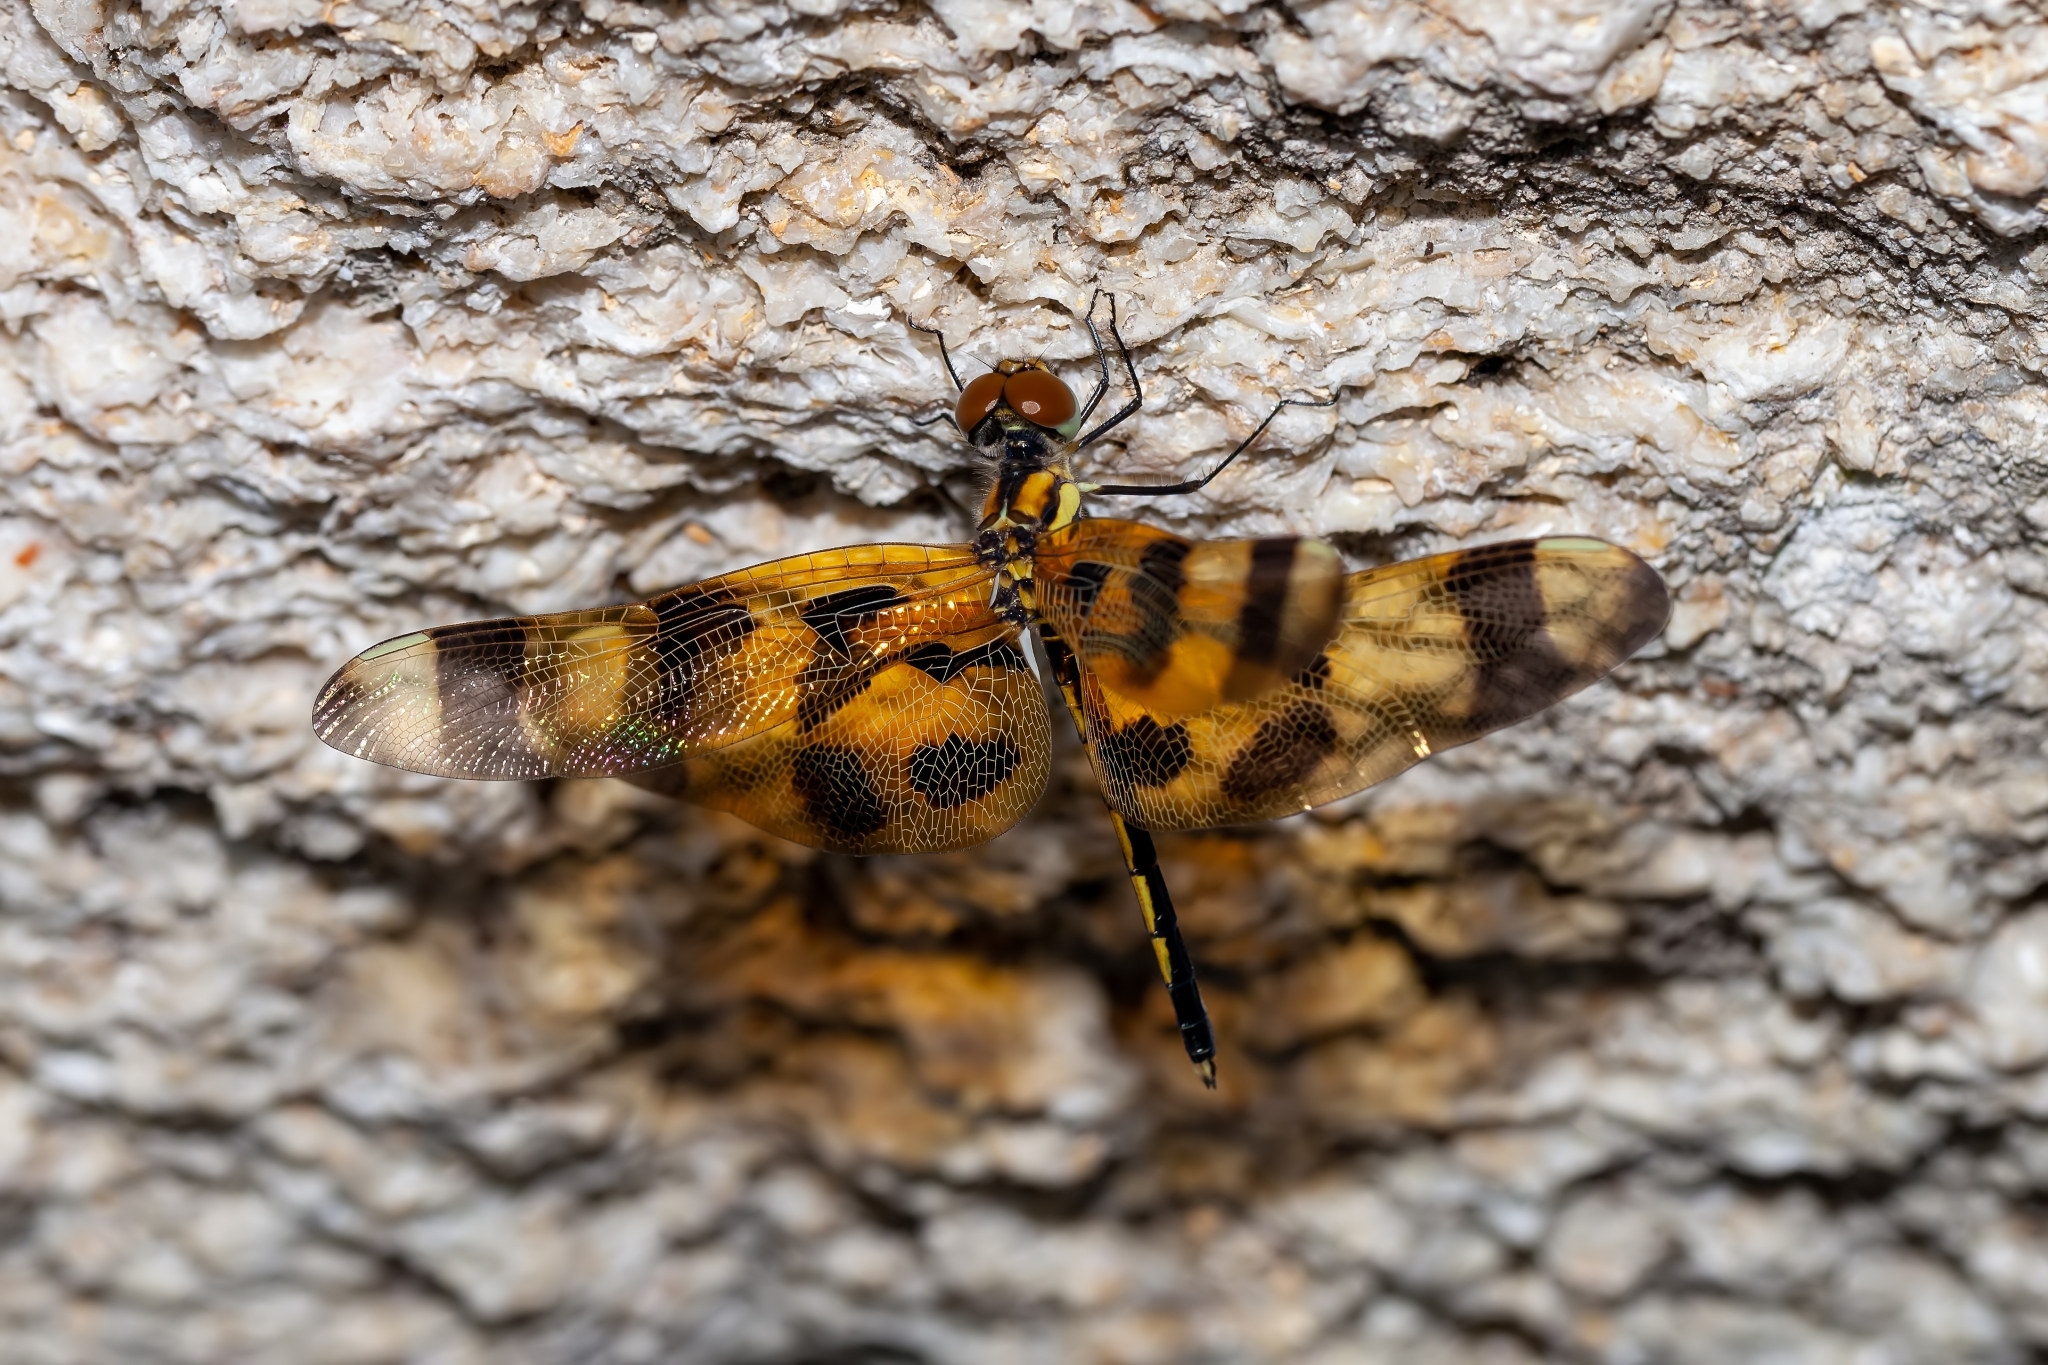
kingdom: Animalia
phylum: Arthropoda
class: Insecta
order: Odonata
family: Libellulidae
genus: Celithemis
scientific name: Celithemis eponina
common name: Halloween pennant
